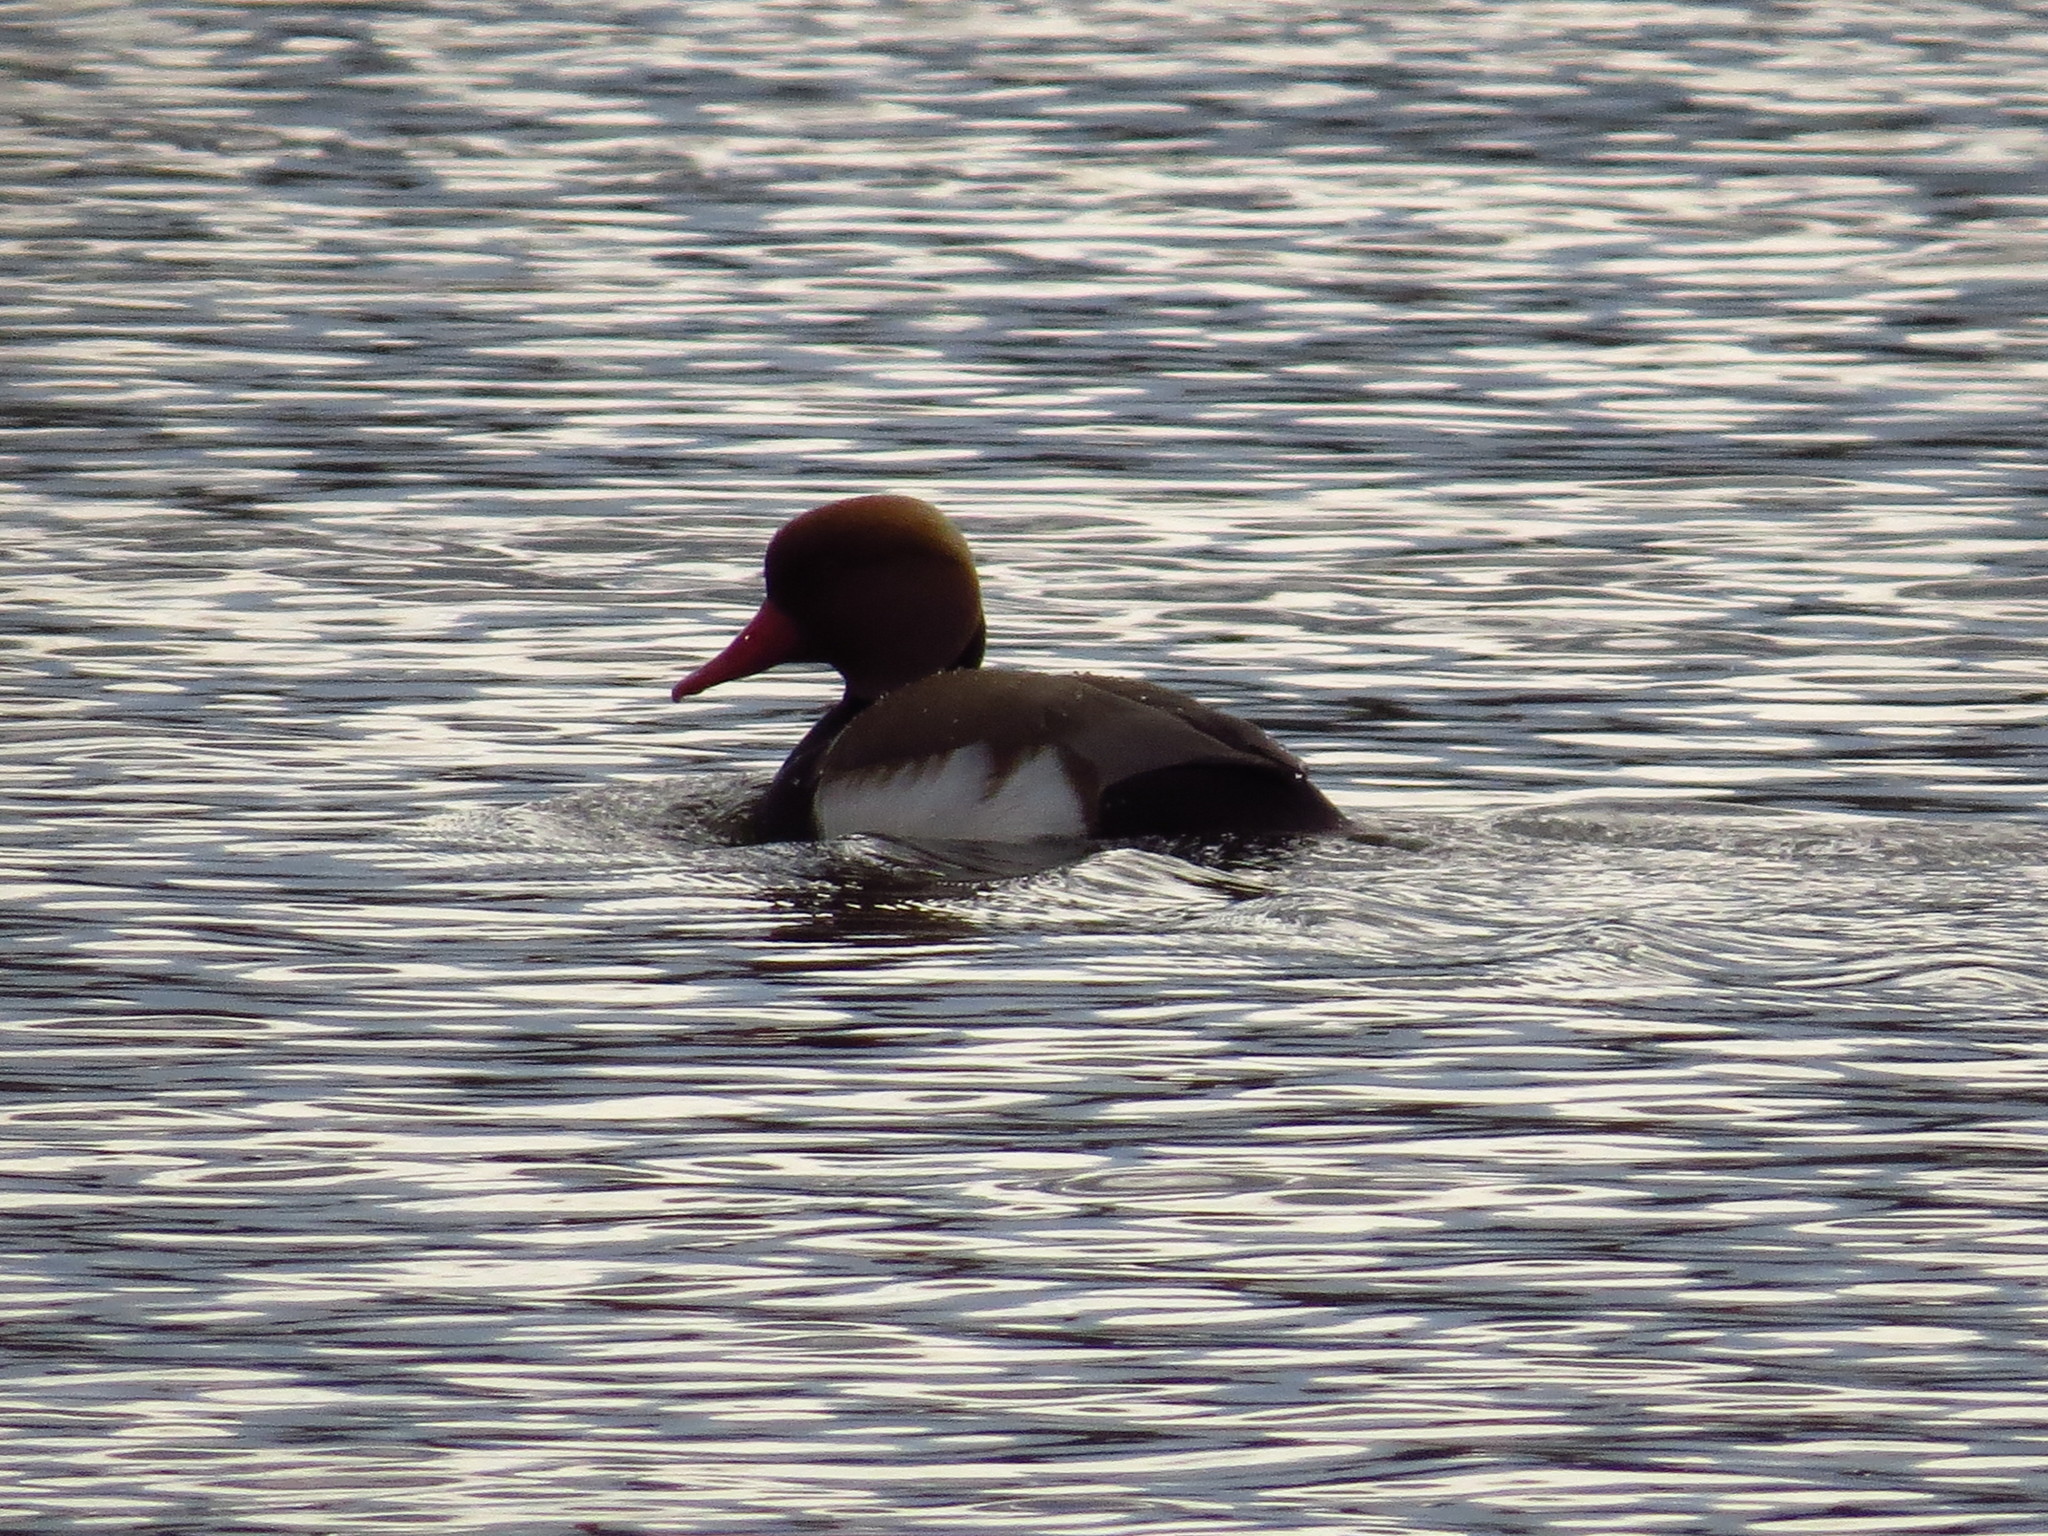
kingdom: Animalia
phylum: Chordata
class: Aves
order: Anseriformes
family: Anatidae
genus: Netta
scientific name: Netta rufina
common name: Red-crested pochard
